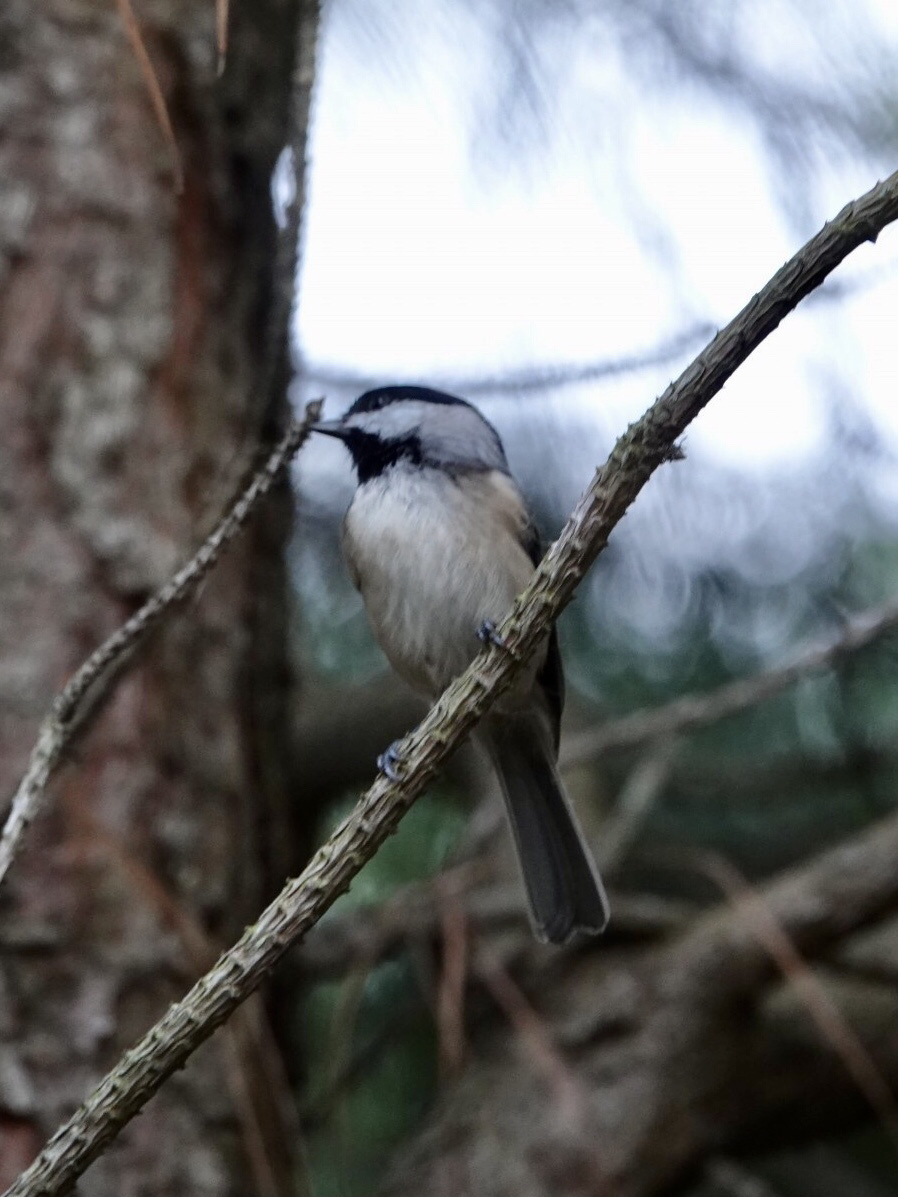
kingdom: Animalia
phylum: Chordata
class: Aves
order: Passeriformes
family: Paridae
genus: Poecile
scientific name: Poecile carolinensis
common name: Carolina chickadee
